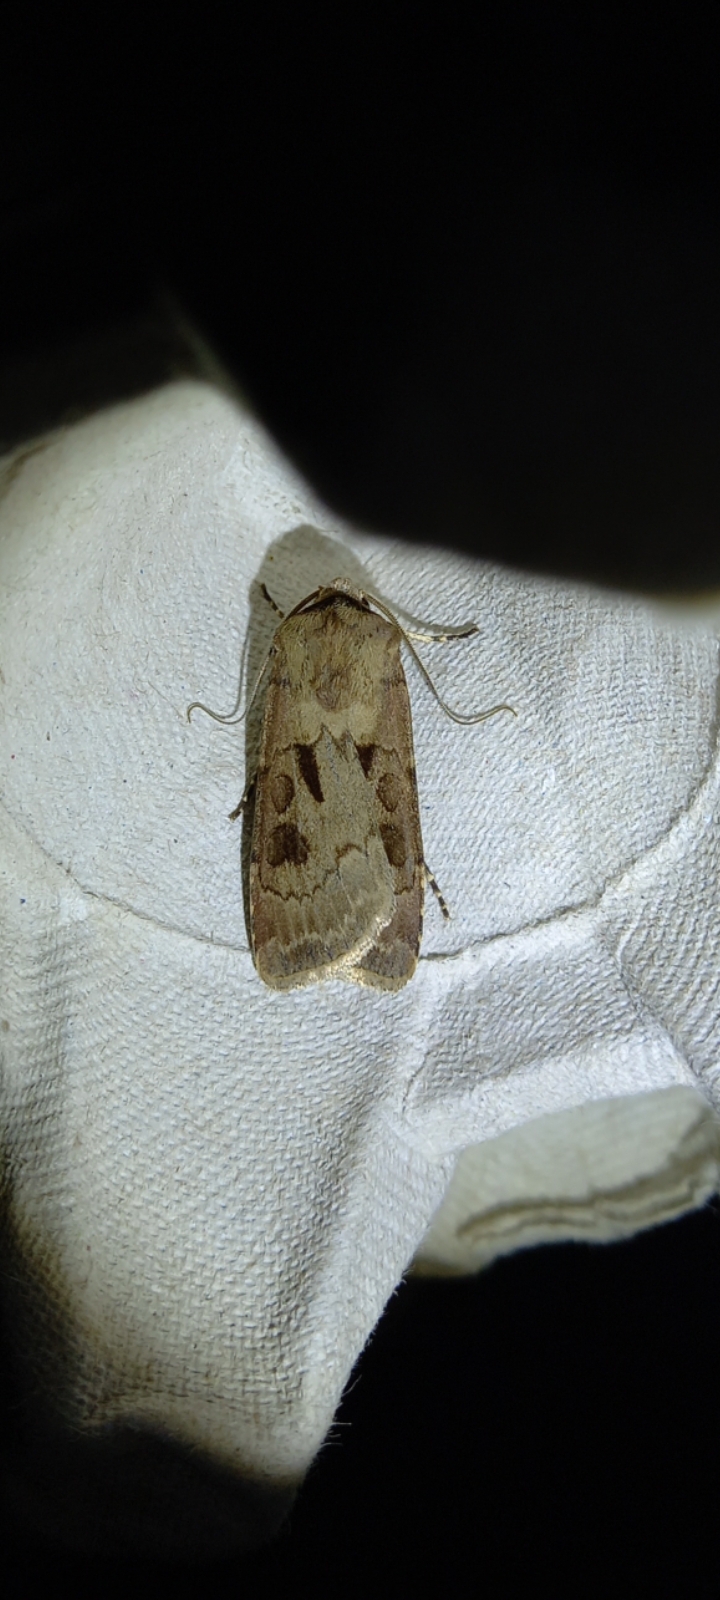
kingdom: Animalia
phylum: Arthropoda
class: Insecta
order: Lepidoptera
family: Noctuidae
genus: Agrotis
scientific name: Agrotis exclamationis
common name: Heart and dart
